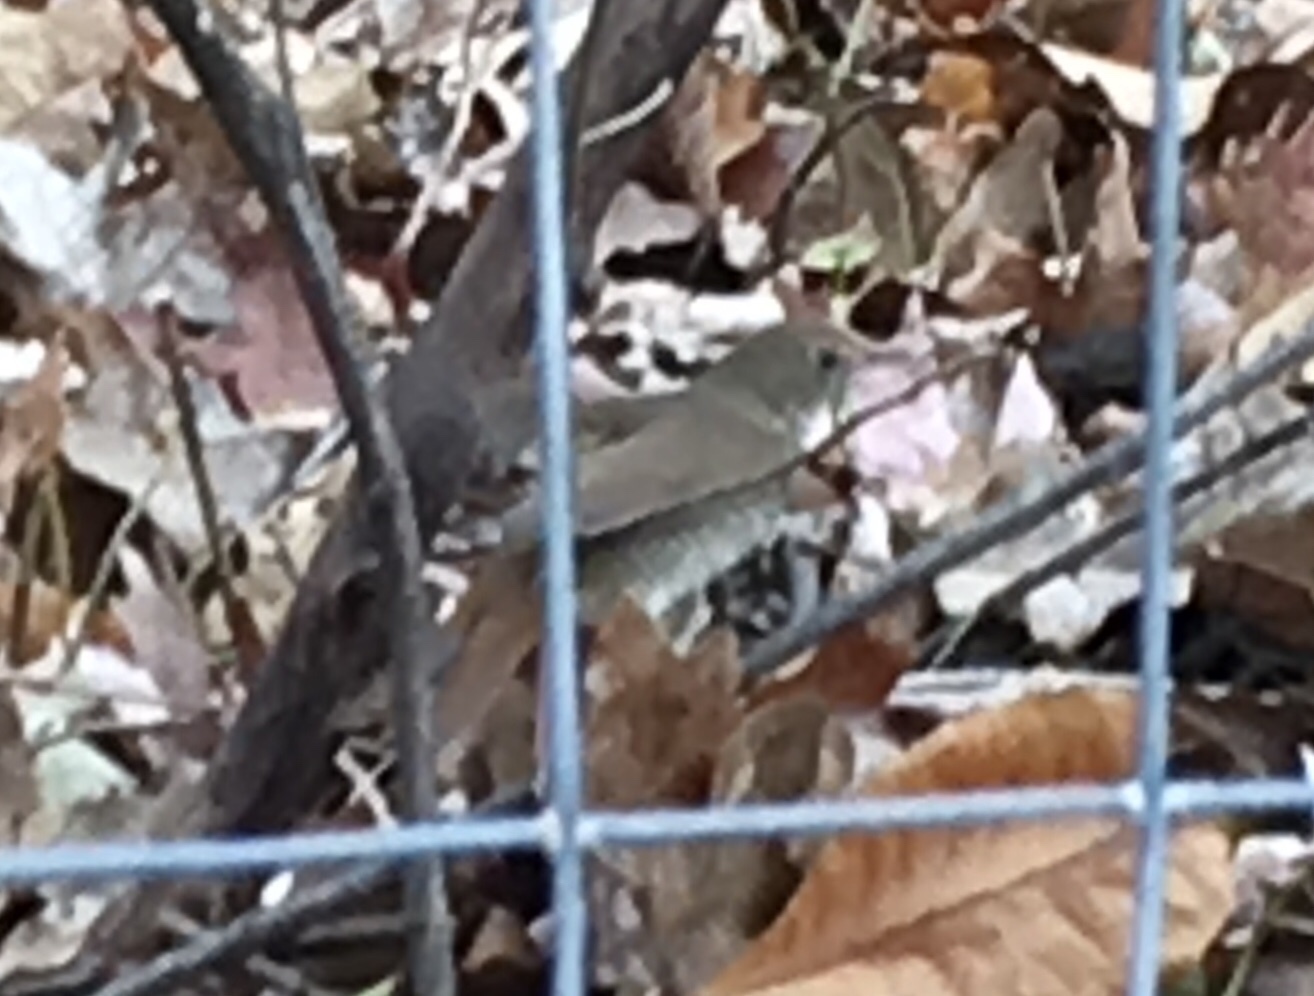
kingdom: Animalia
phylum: Chordata
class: Aves
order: Passeriformes
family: Turdidae
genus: Catharus
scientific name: Catharus guttatus
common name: Hermit thrush
